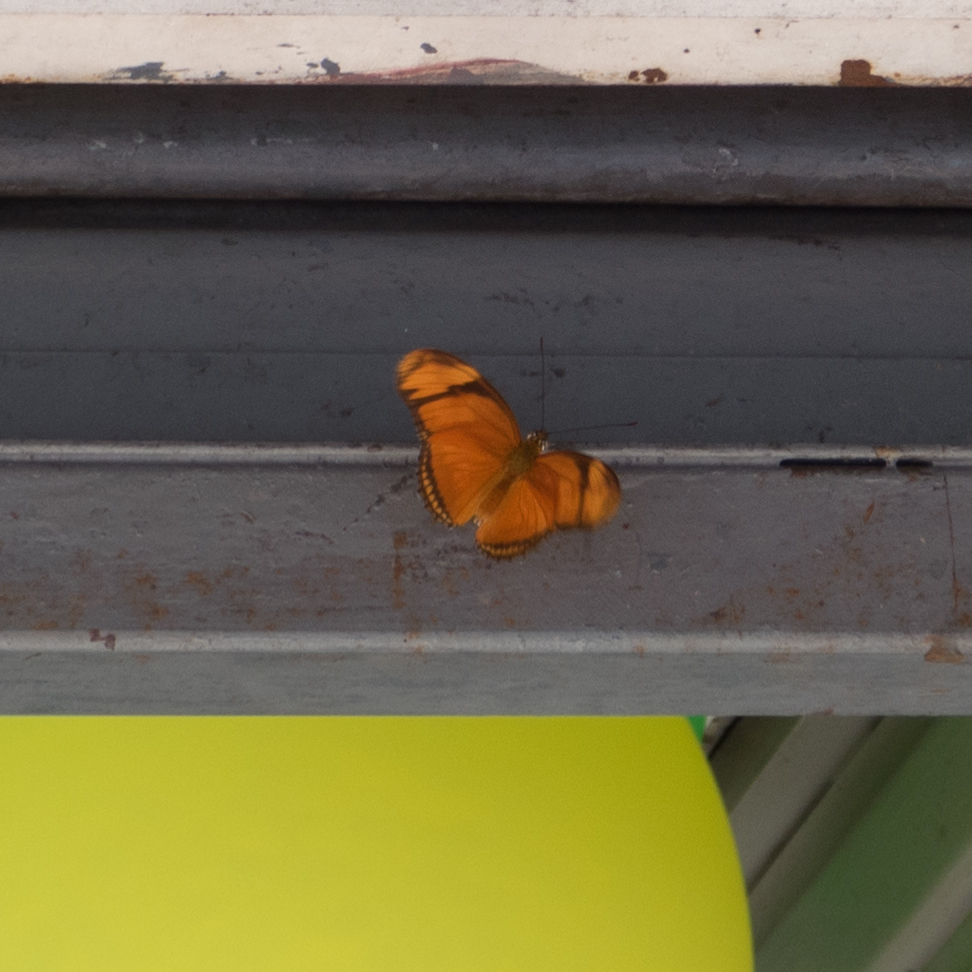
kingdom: Animalia
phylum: Arthropoda
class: Insecta
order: Lepidoptera
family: Nymphalidae
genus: Dryas
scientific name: Dryas iulia
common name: Flambeau
